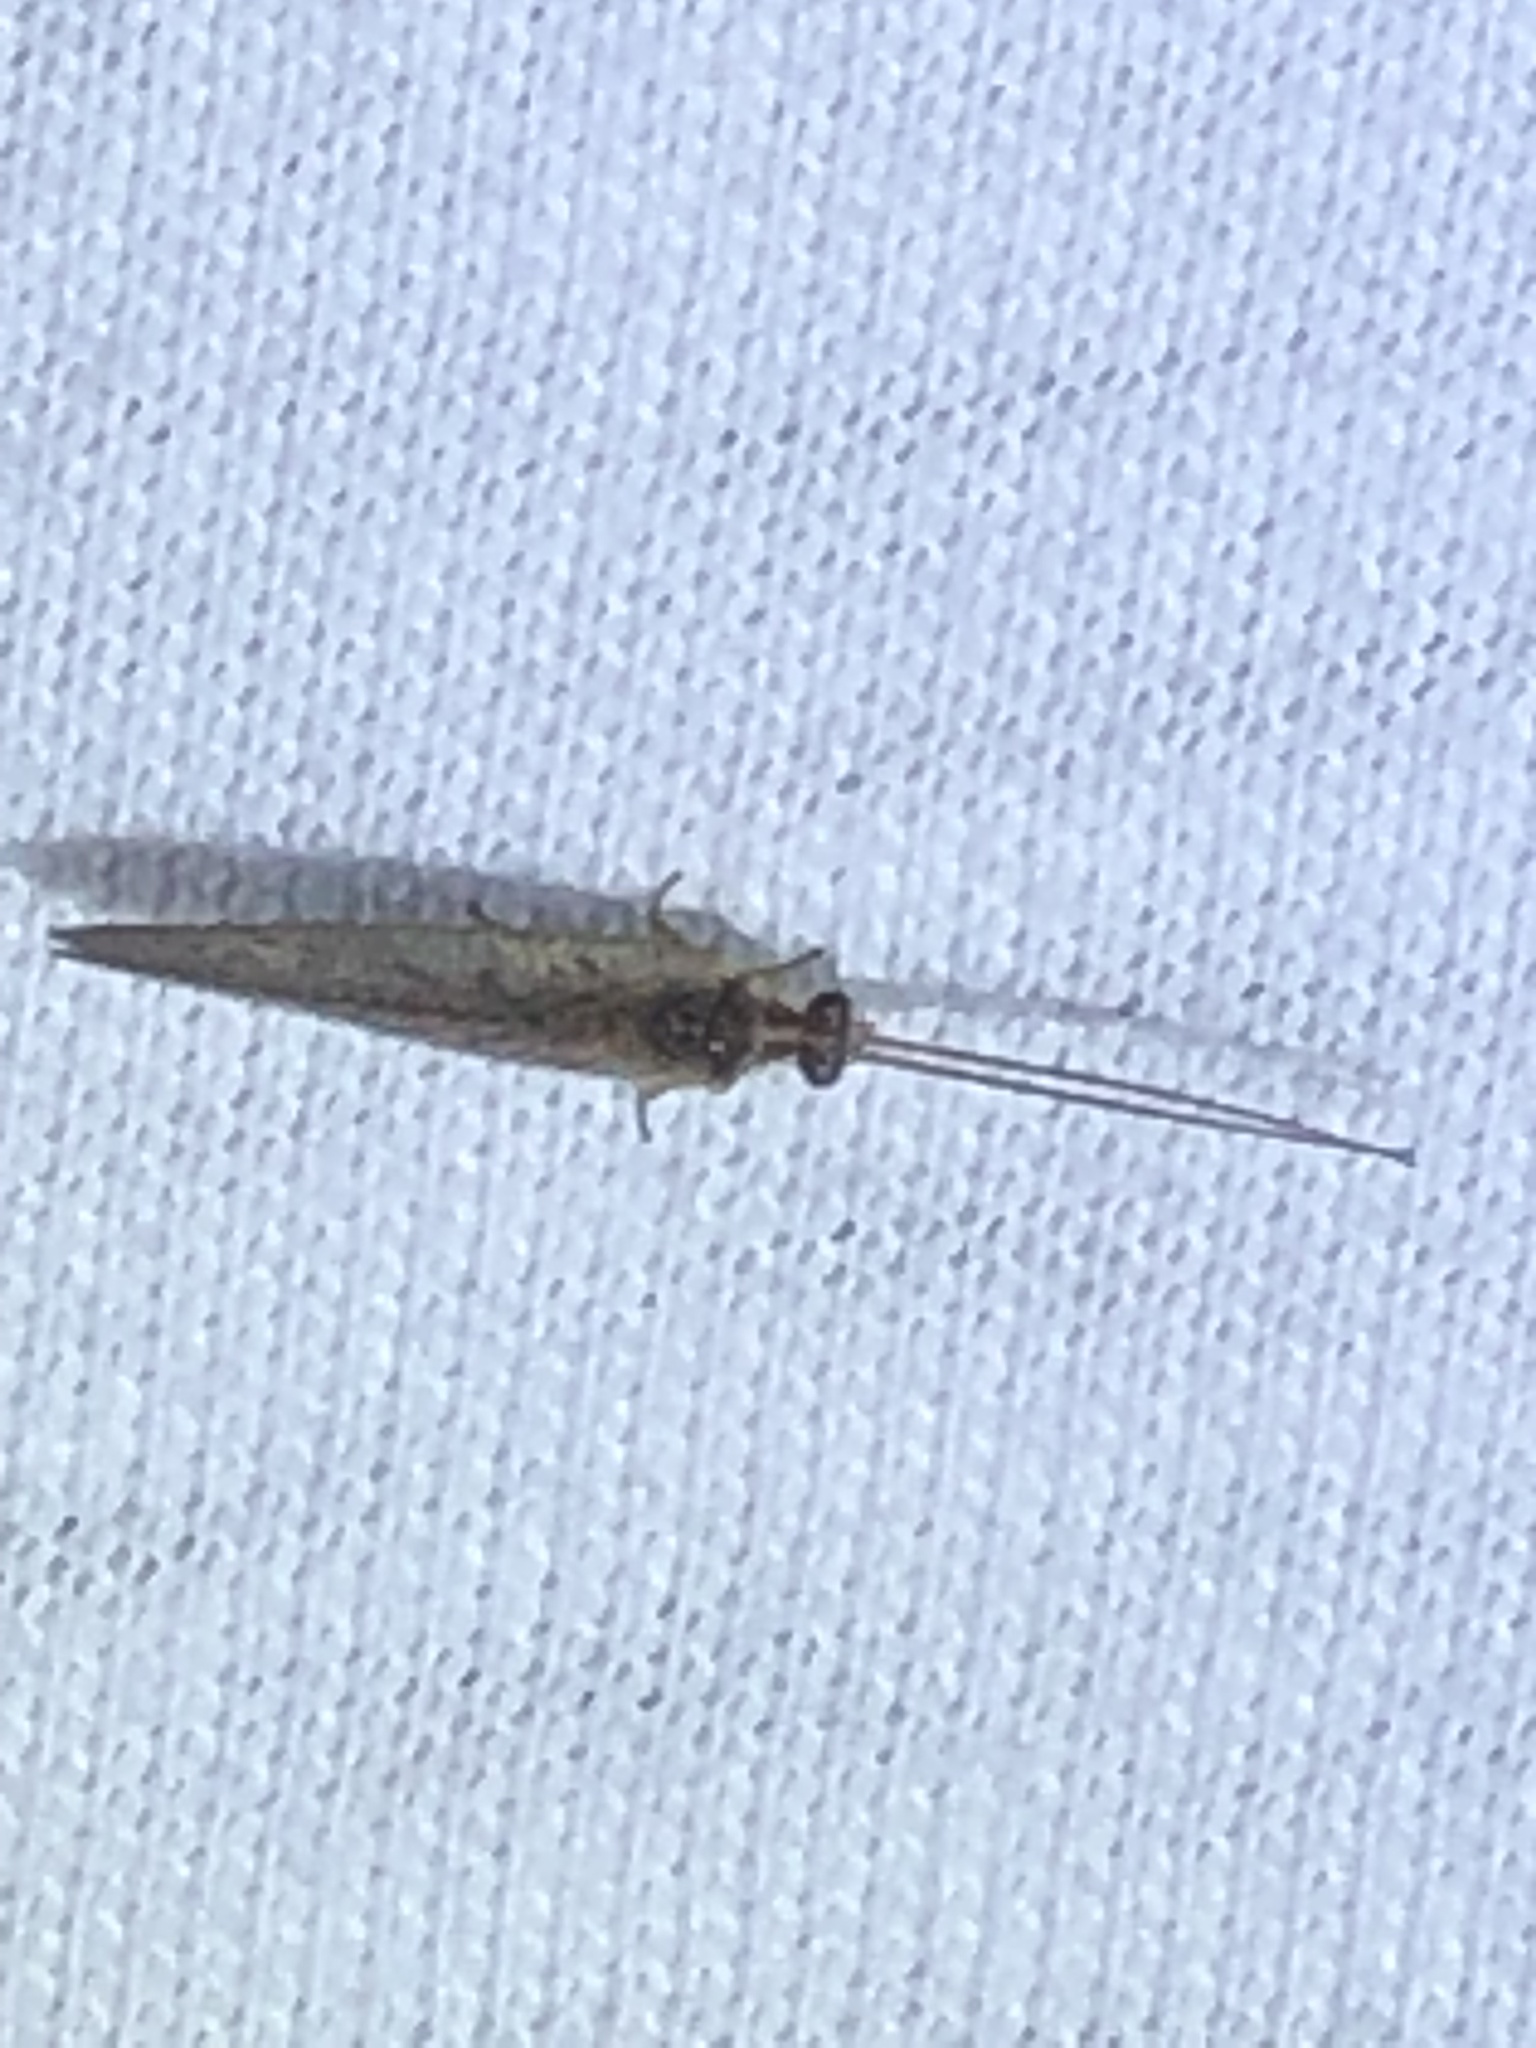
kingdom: Animalia
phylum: Arthropoda
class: Insecta
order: Neuroptera
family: Hemerobiidae
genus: Hemerobius
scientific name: Hemerobius stigma
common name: Brown pine lacewing
